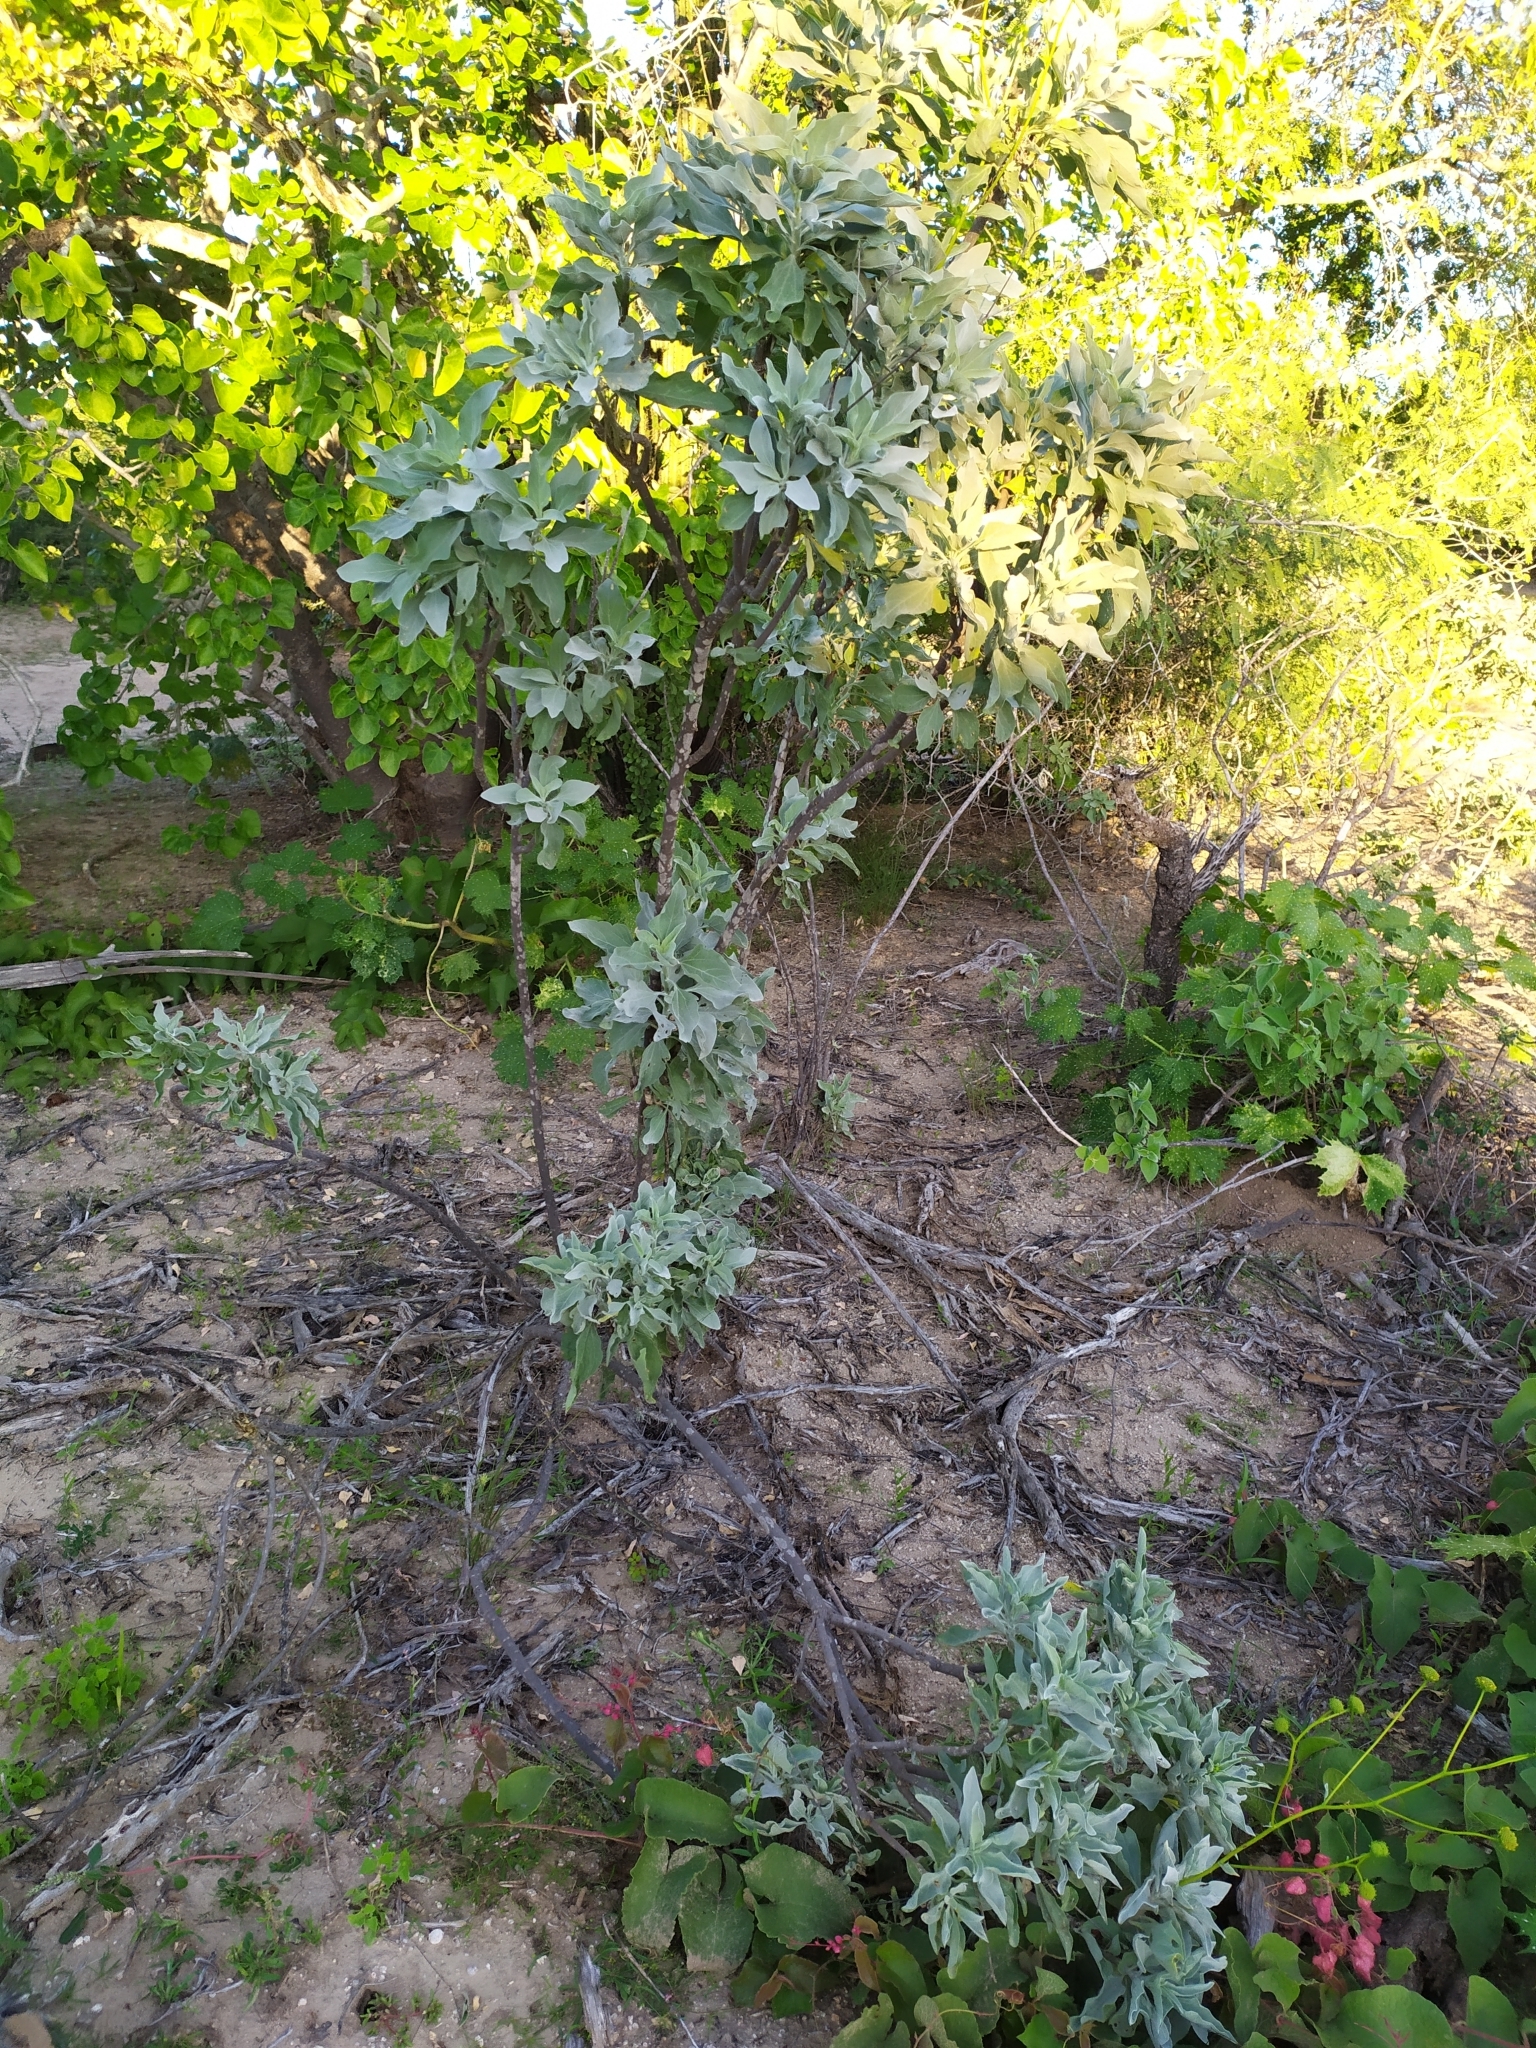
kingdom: Plantae
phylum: Tracheophyta
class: Magnoliopsida
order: Asterales
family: Asteraceae
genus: Encelia
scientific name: Encelia farinosa
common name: Brittlebush
